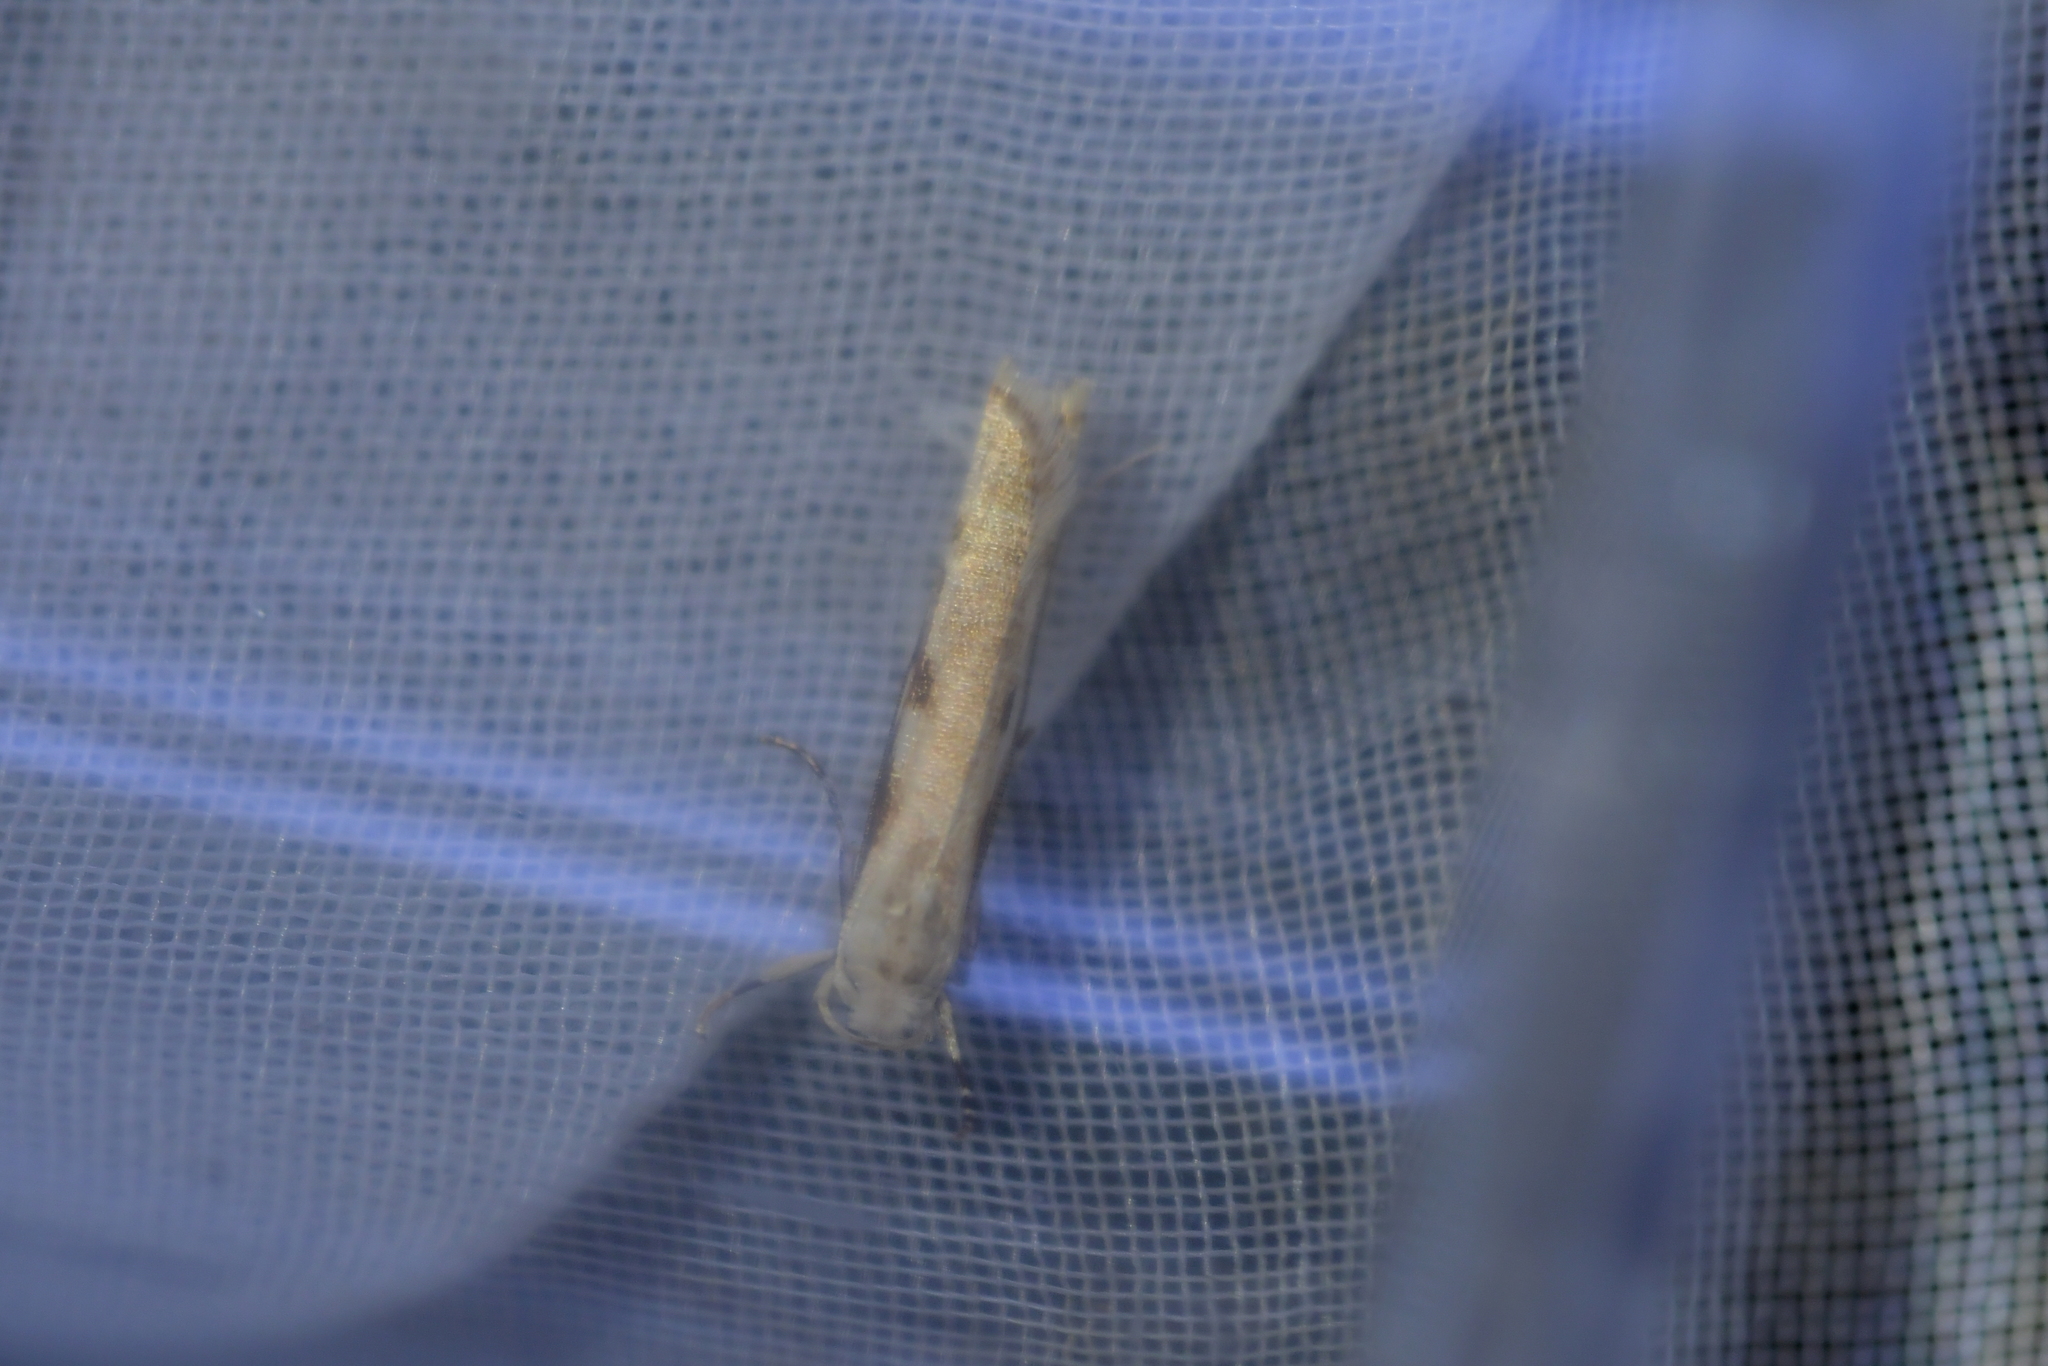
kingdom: Animalia
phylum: Arthropoda
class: Insecta
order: Lepidoptera
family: Plutellidae
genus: Dolichernis
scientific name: Dolichernis chloroleuca
